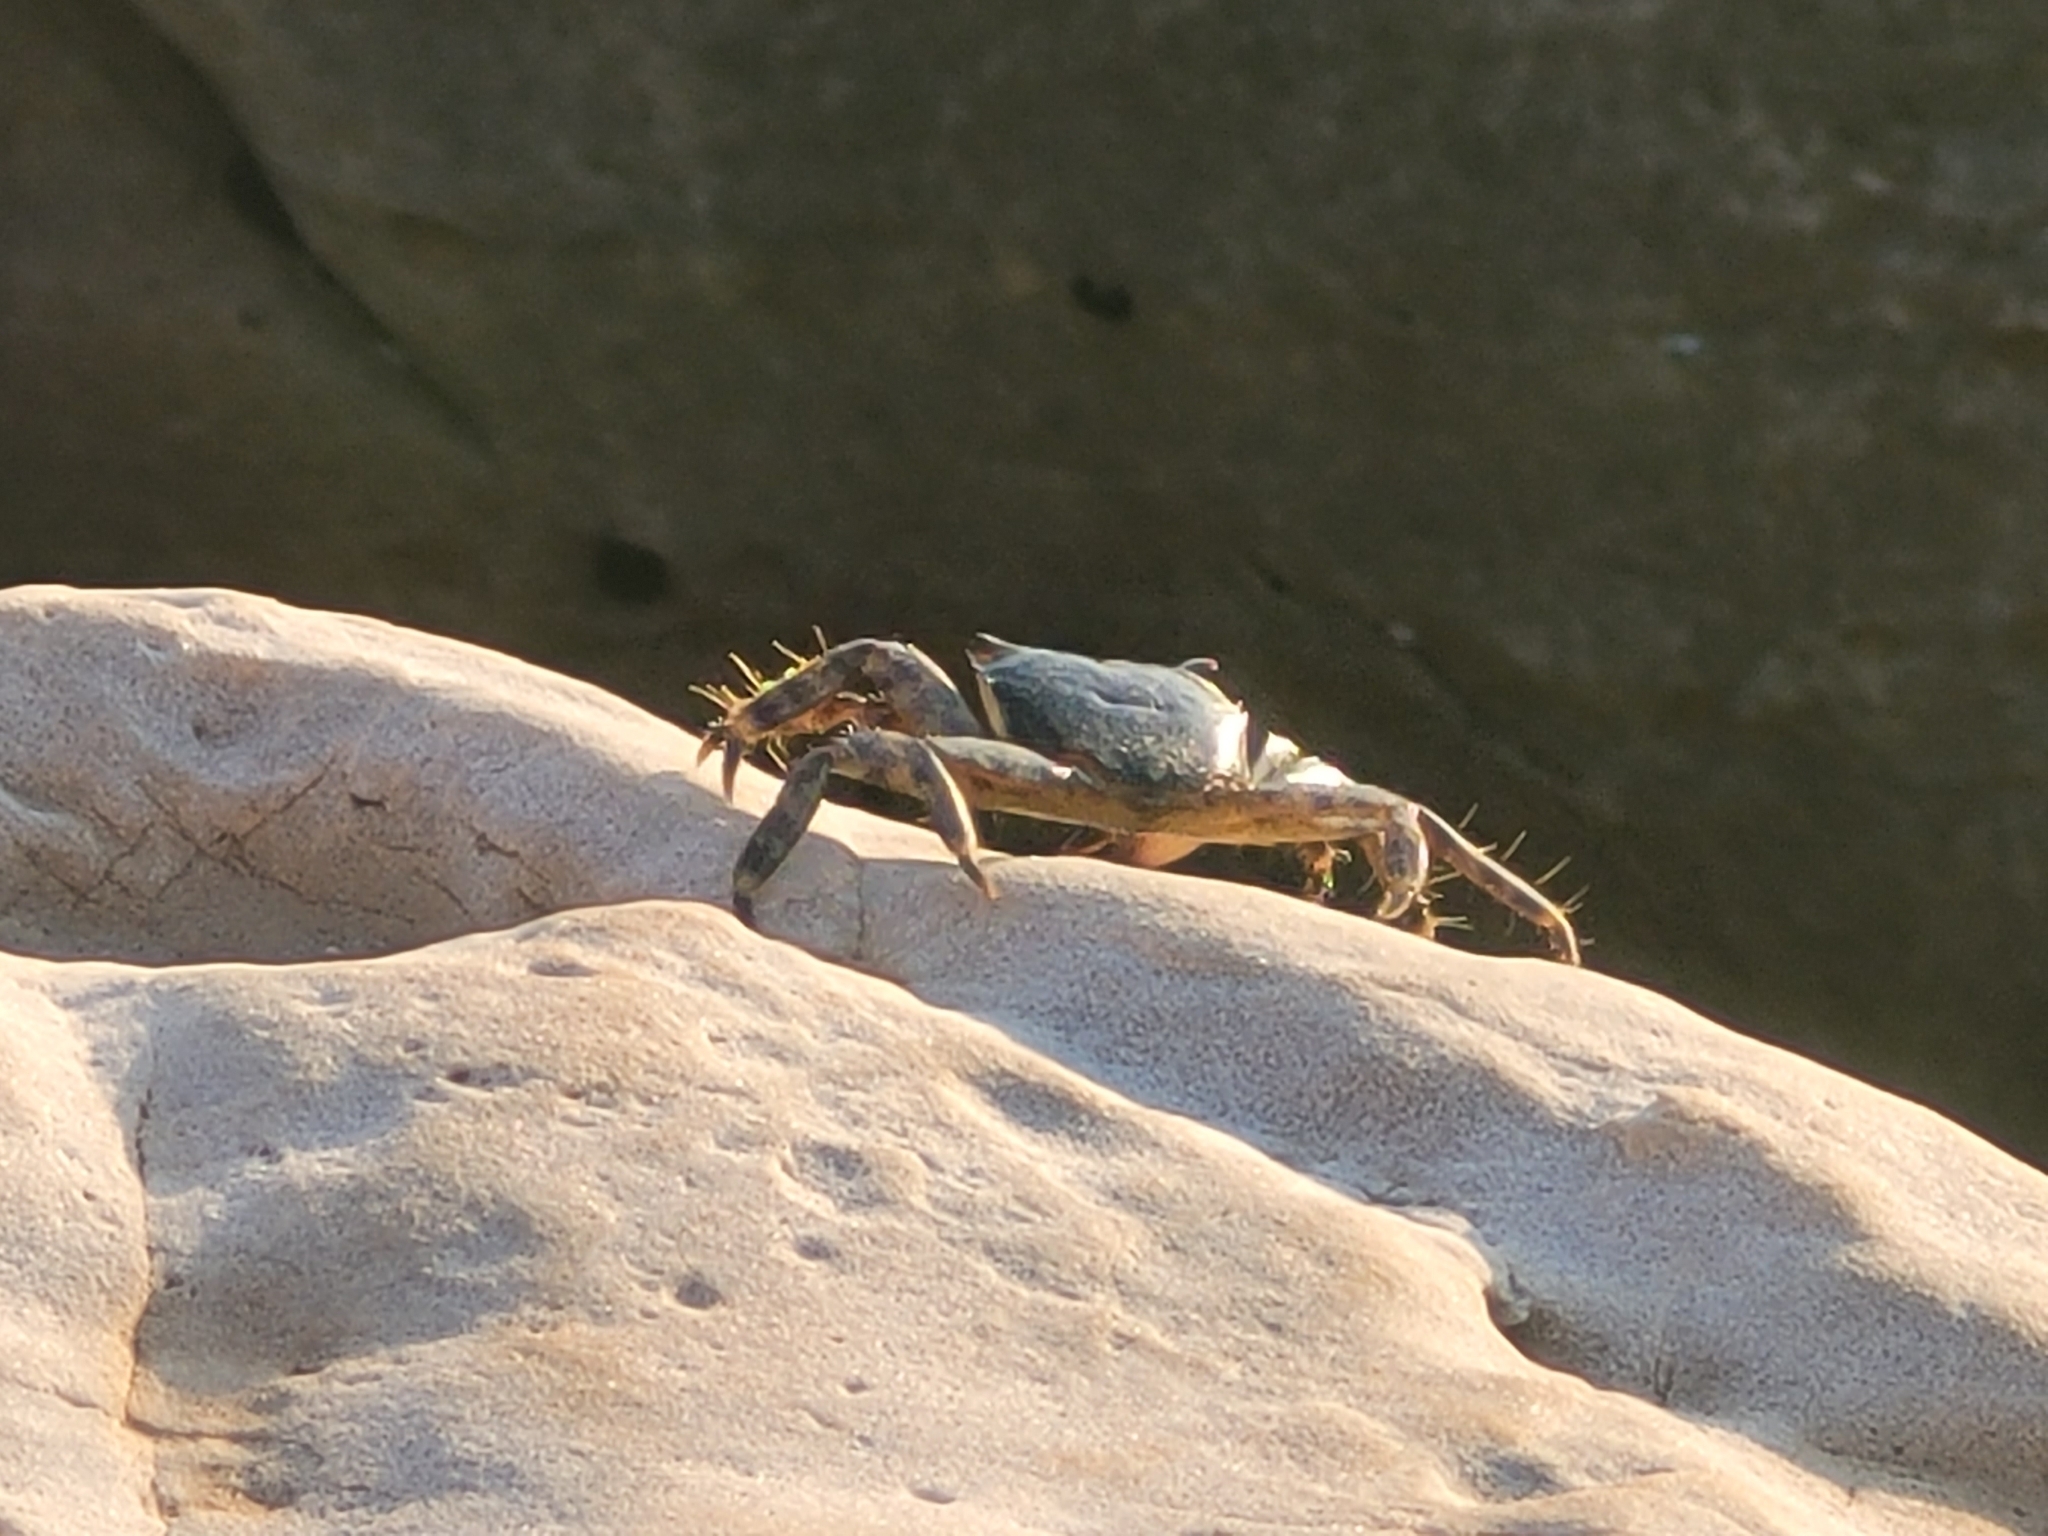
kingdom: Animalia
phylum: Arthropoda
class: Malacostraca
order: Decapoda
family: Grapsidae
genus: Pachygrapsus
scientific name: Pachygrapsus marmoratus
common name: Marbled rock crab
